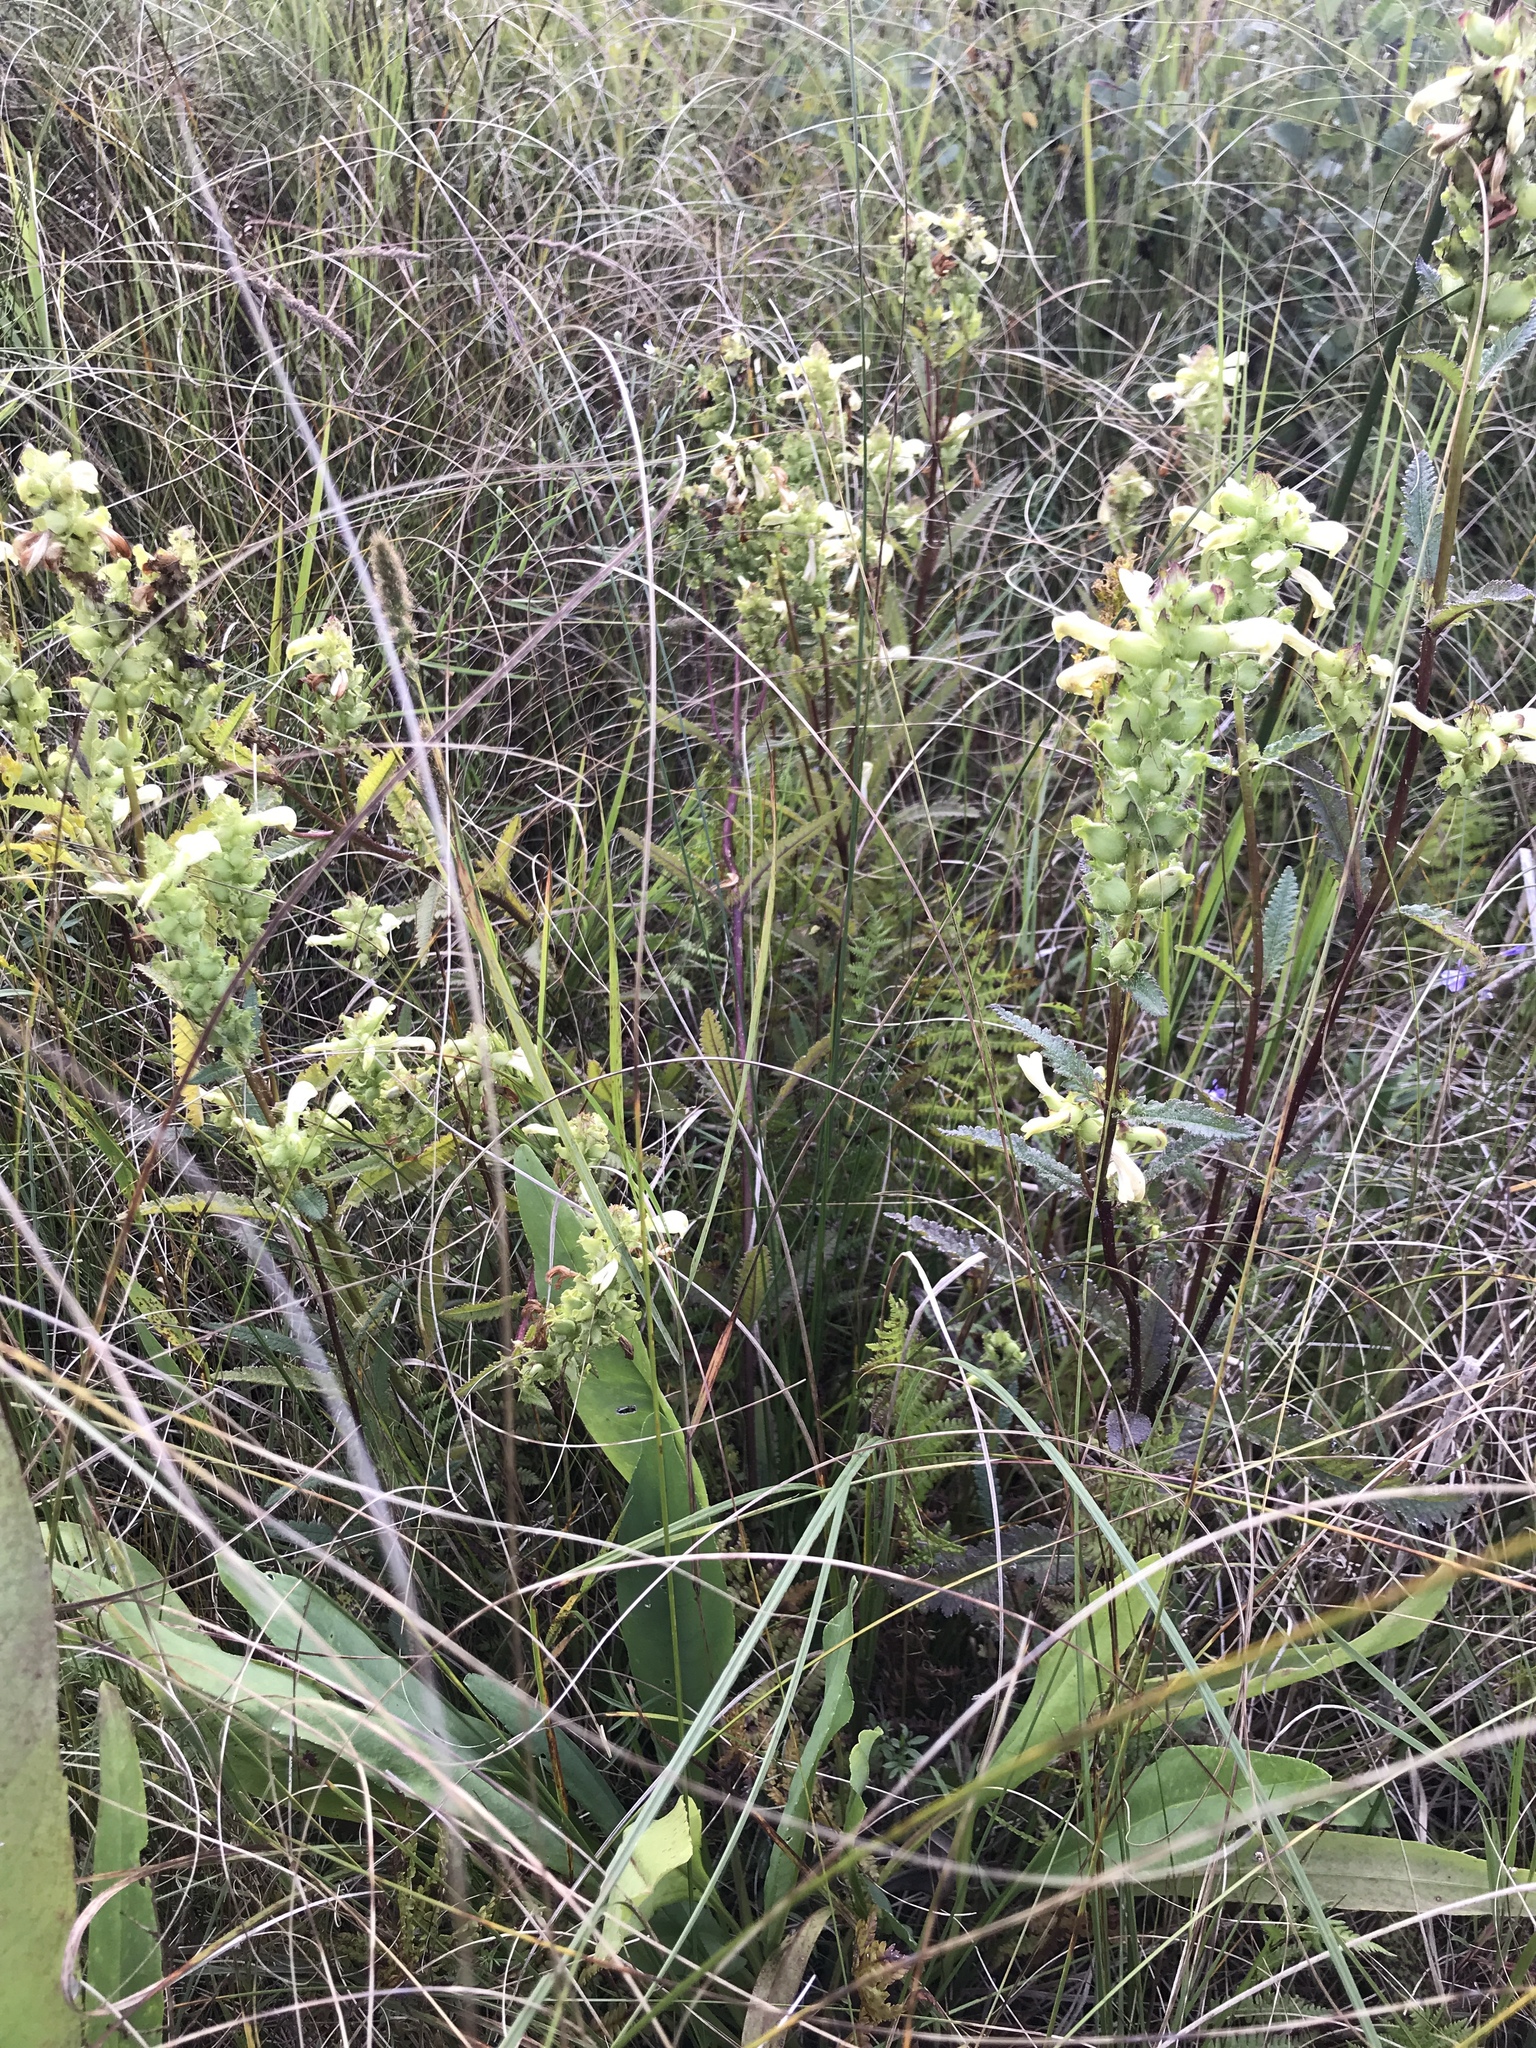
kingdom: Plantae
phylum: Tracheophyta
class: Magnoliopsida
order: Lamiales
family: Orobanchaceae
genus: Pedicularis
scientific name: Pedicularis lanceolata
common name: Swamp lousewort
